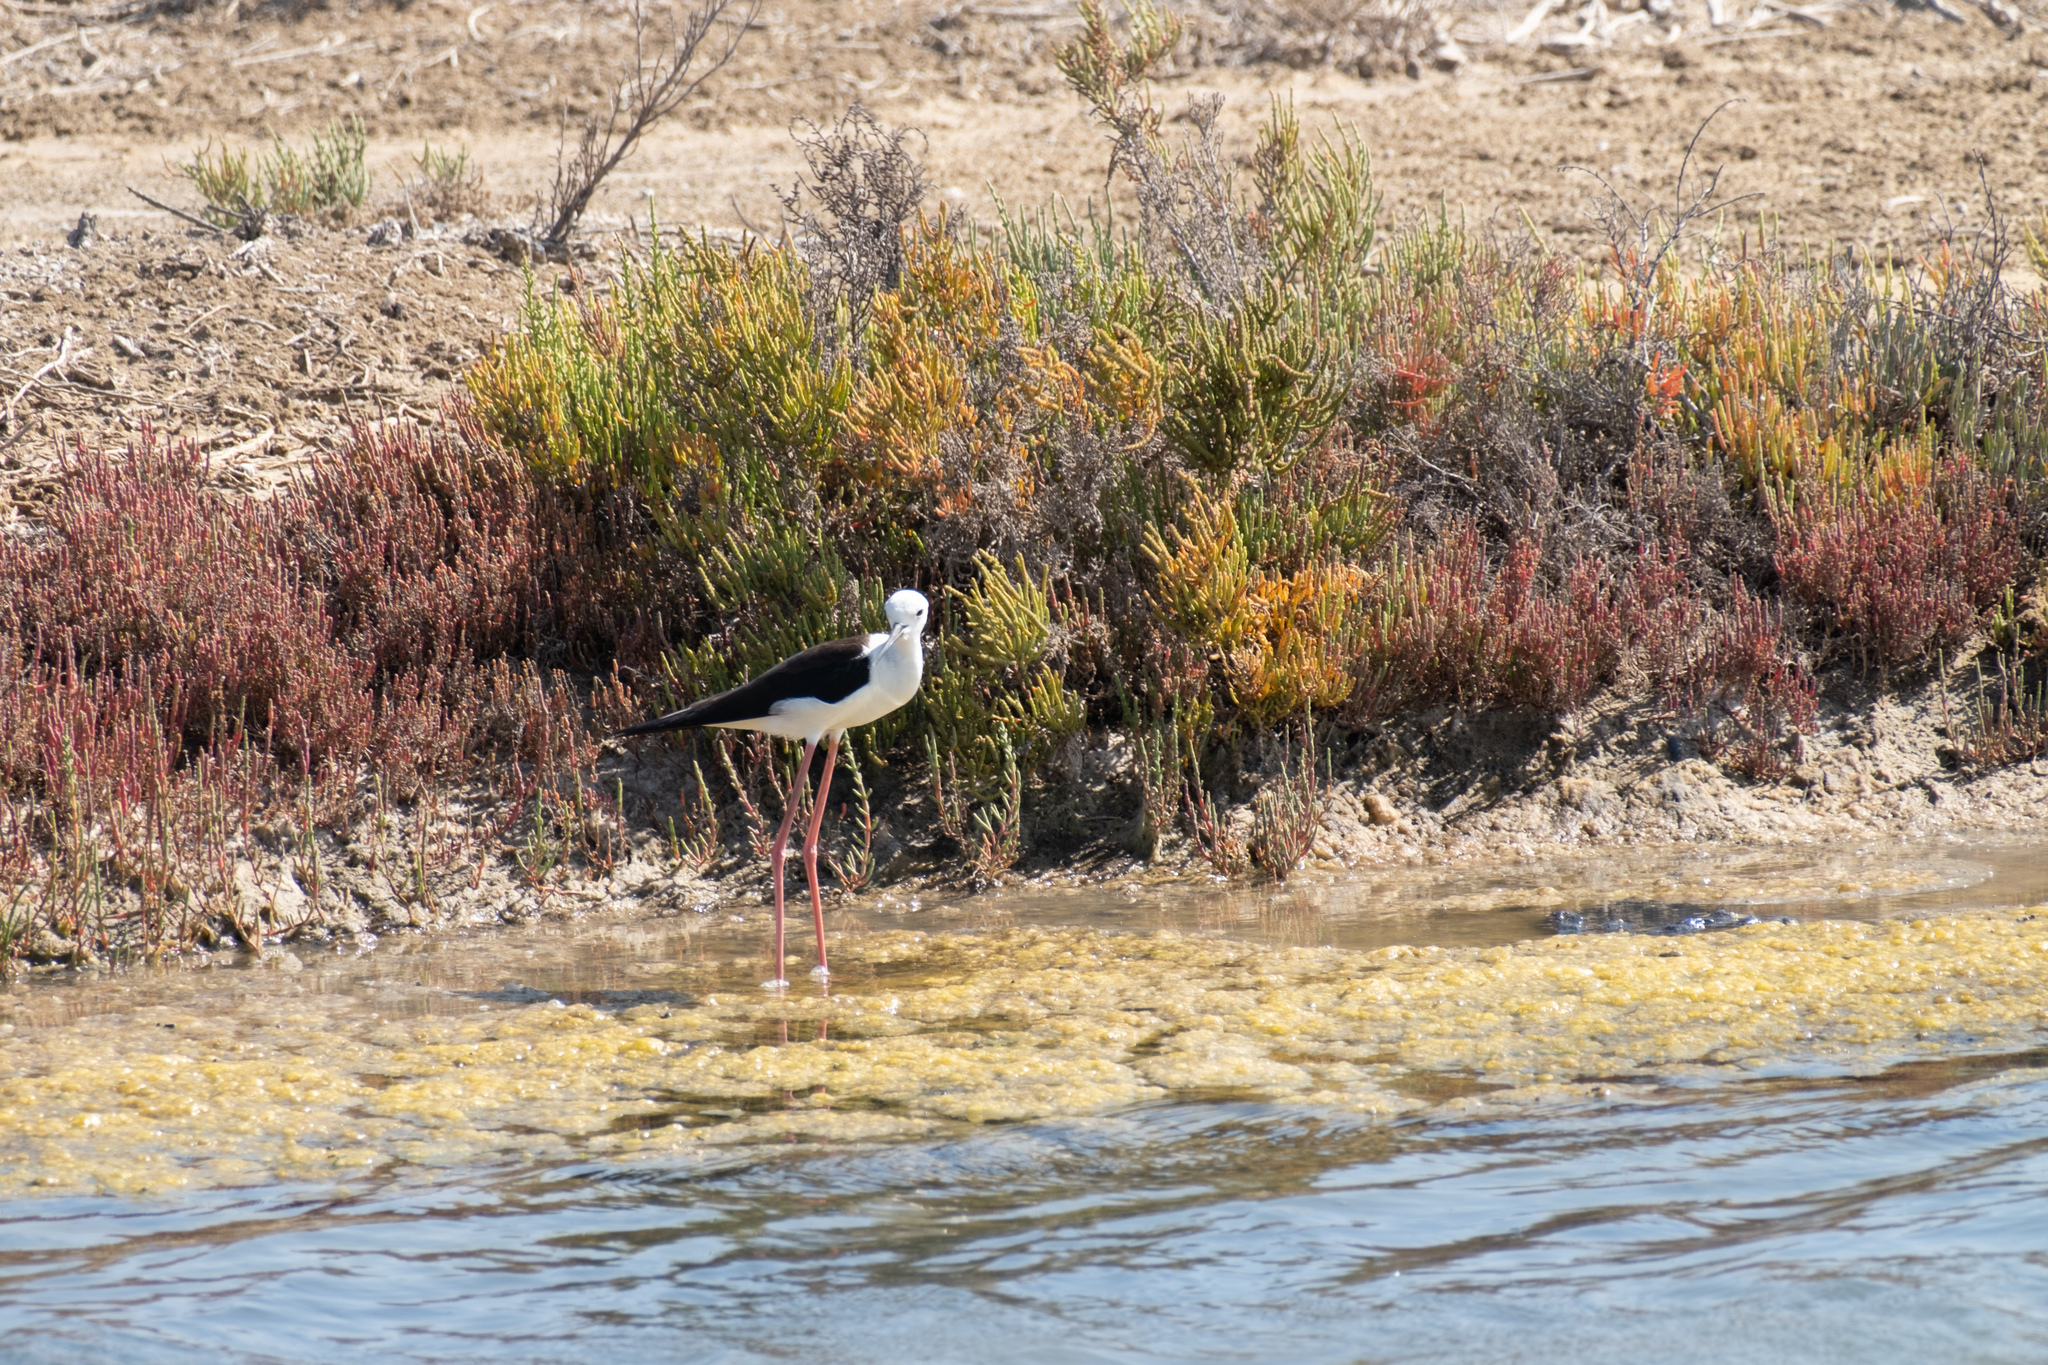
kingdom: Animalia
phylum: Chordata
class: Aves
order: Charadriiformes
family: Recurvirostridae
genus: Himantopus
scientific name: Himantopus himantopus
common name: Black-winged stilt
